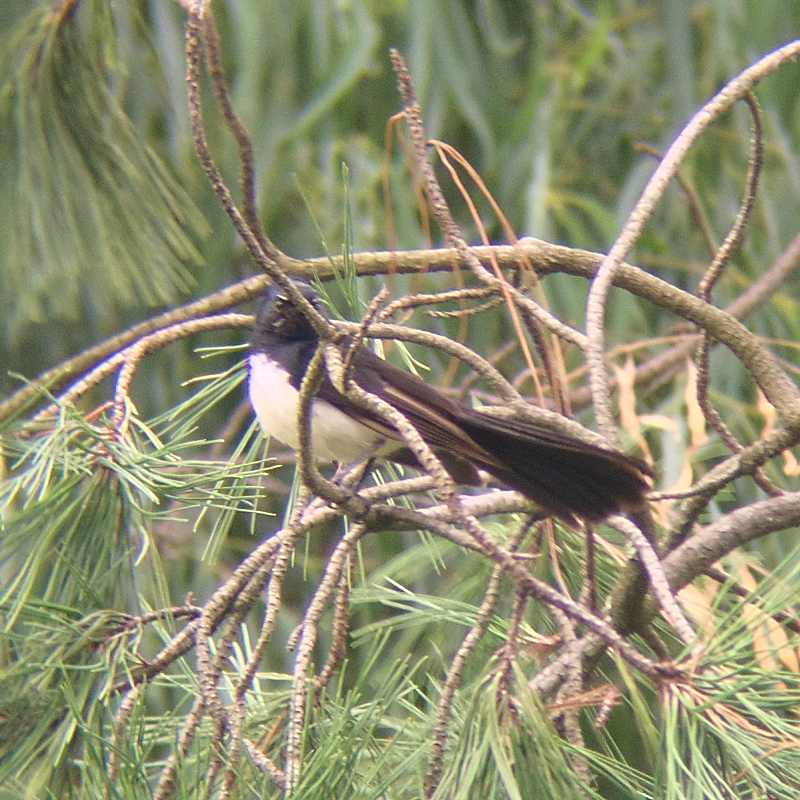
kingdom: Animalia
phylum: Chordata
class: Aves
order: Passeriformes
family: Rhipiduridae
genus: Rhipidura
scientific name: Rhipidura leucophrys
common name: Willie wagtail
